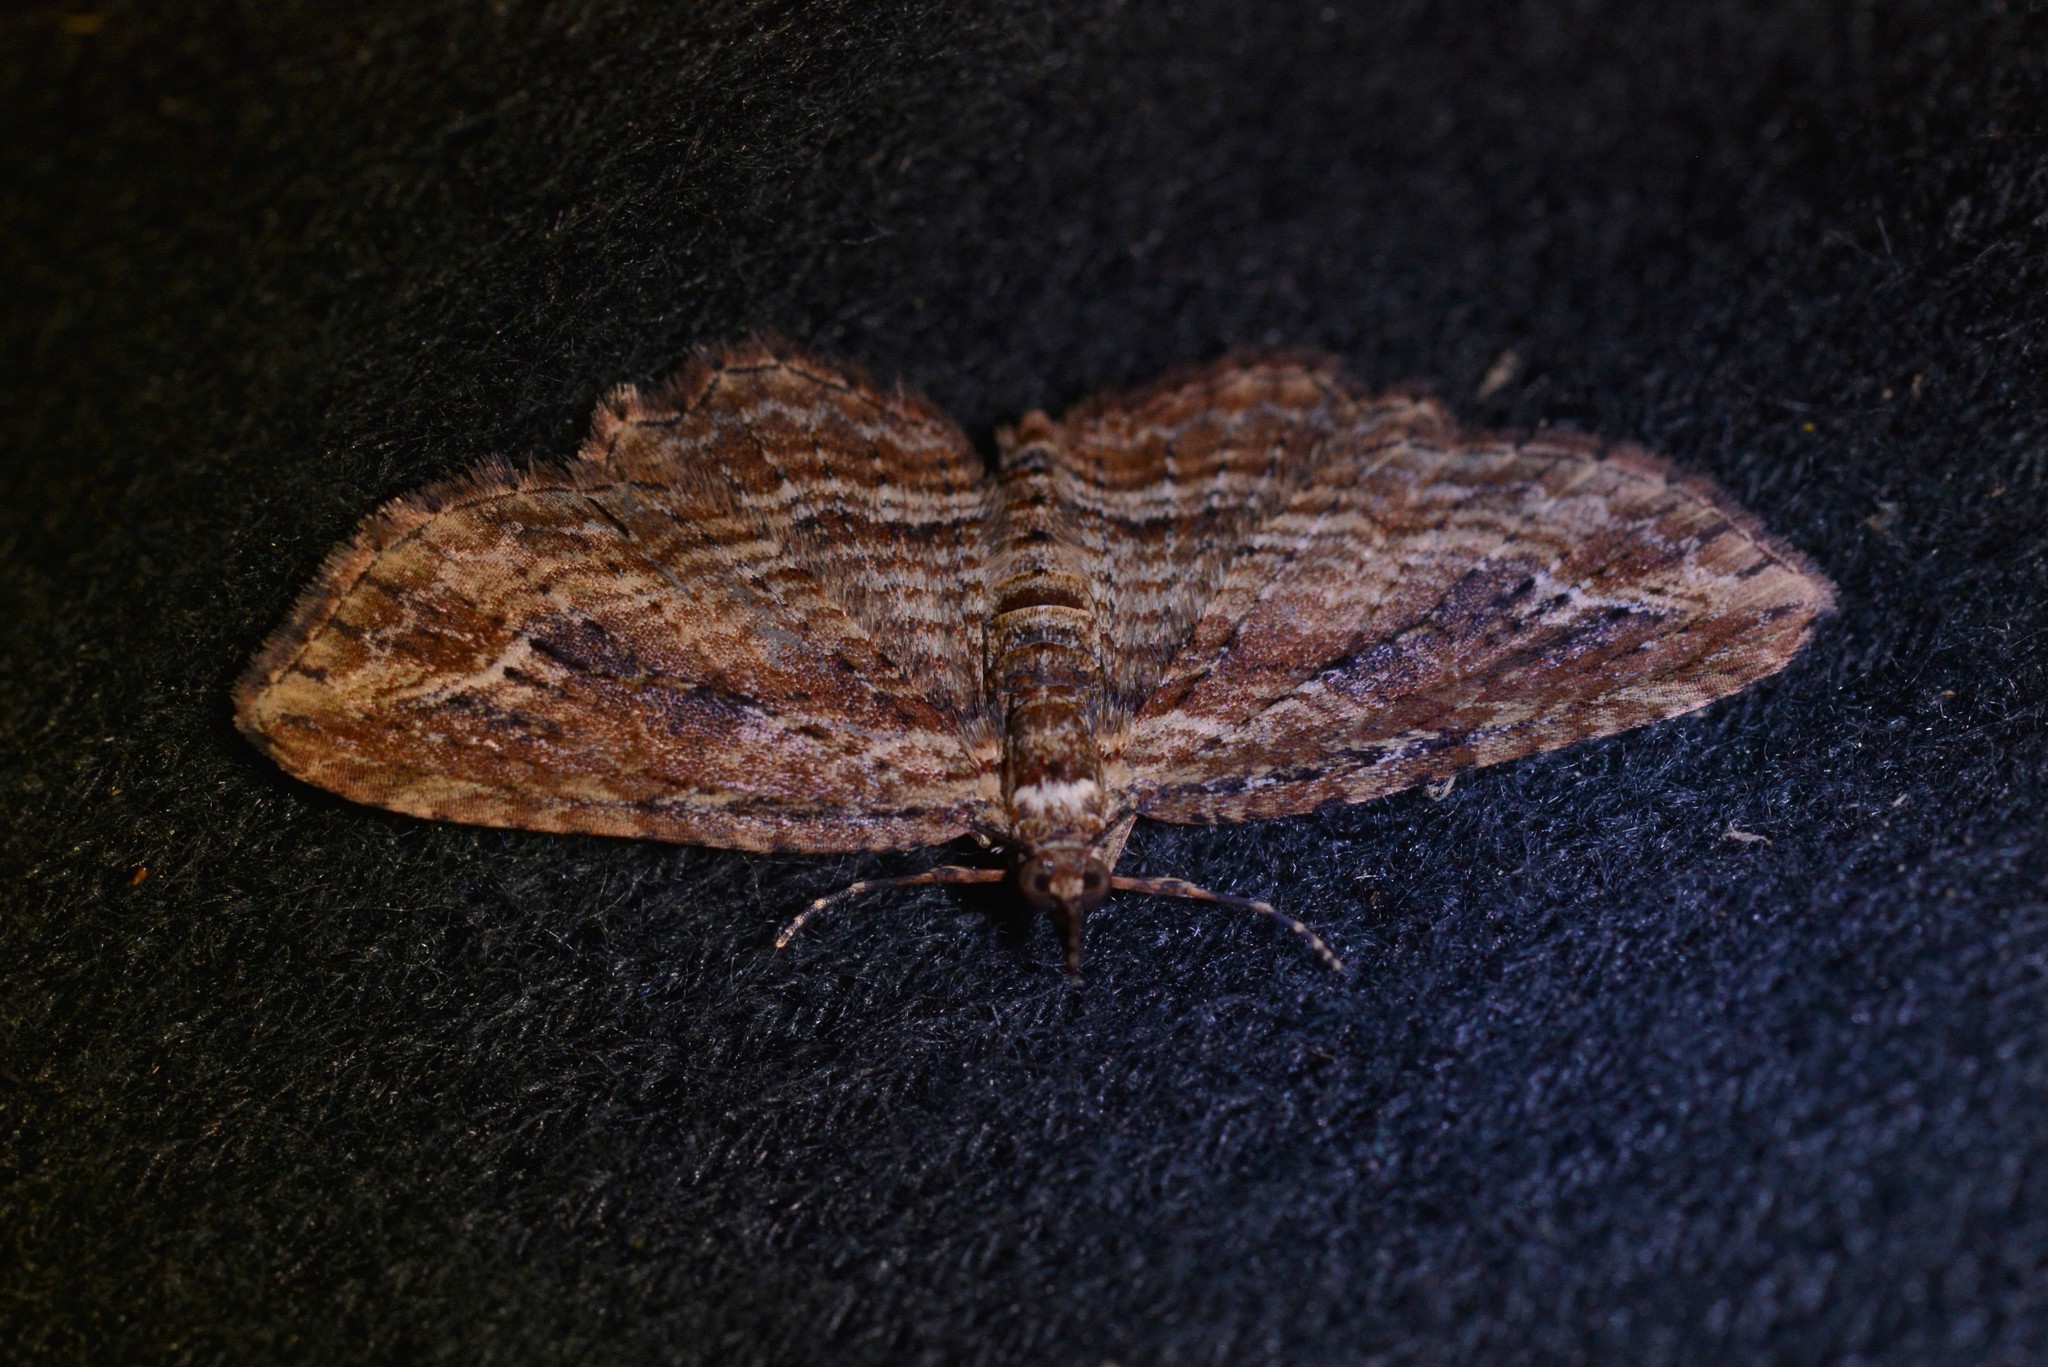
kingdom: Animalia
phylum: Arthropoda
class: Insecta
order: Lepidoptera
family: Geometridae
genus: Chloroclystis
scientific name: Chloroclystis filata
